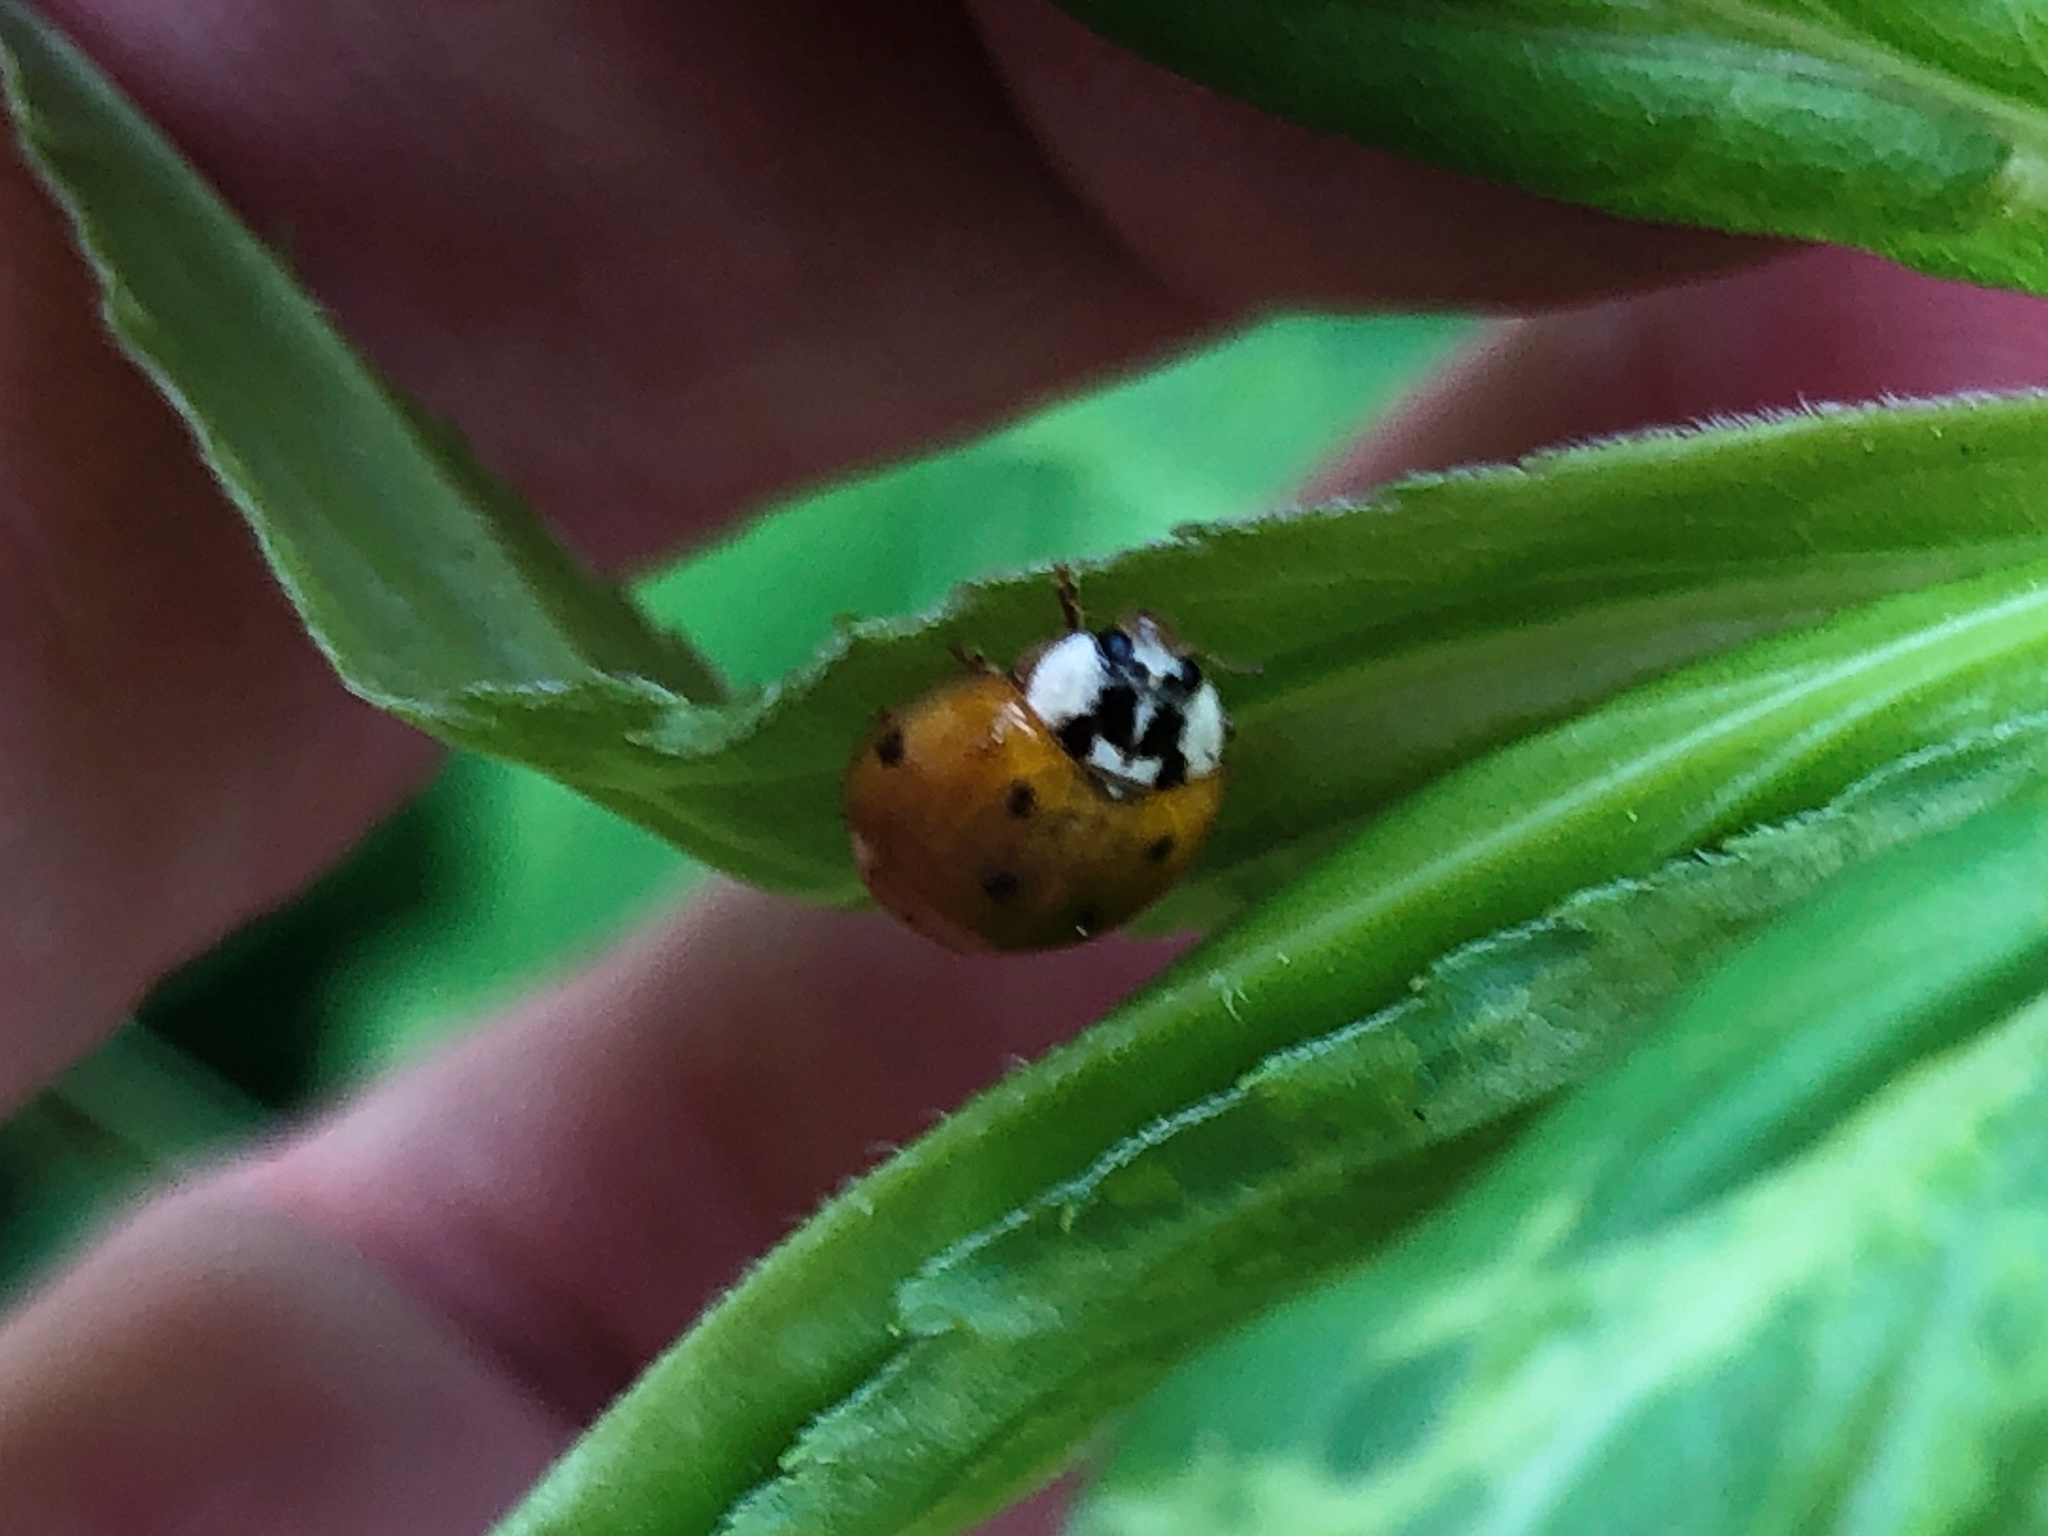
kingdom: Animalia
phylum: Arthropoda
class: Insecta
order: Coleoptera
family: Coccinellidae
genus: Harmonia
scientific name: Harmonia axyridis
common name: Harlequin ladybird
